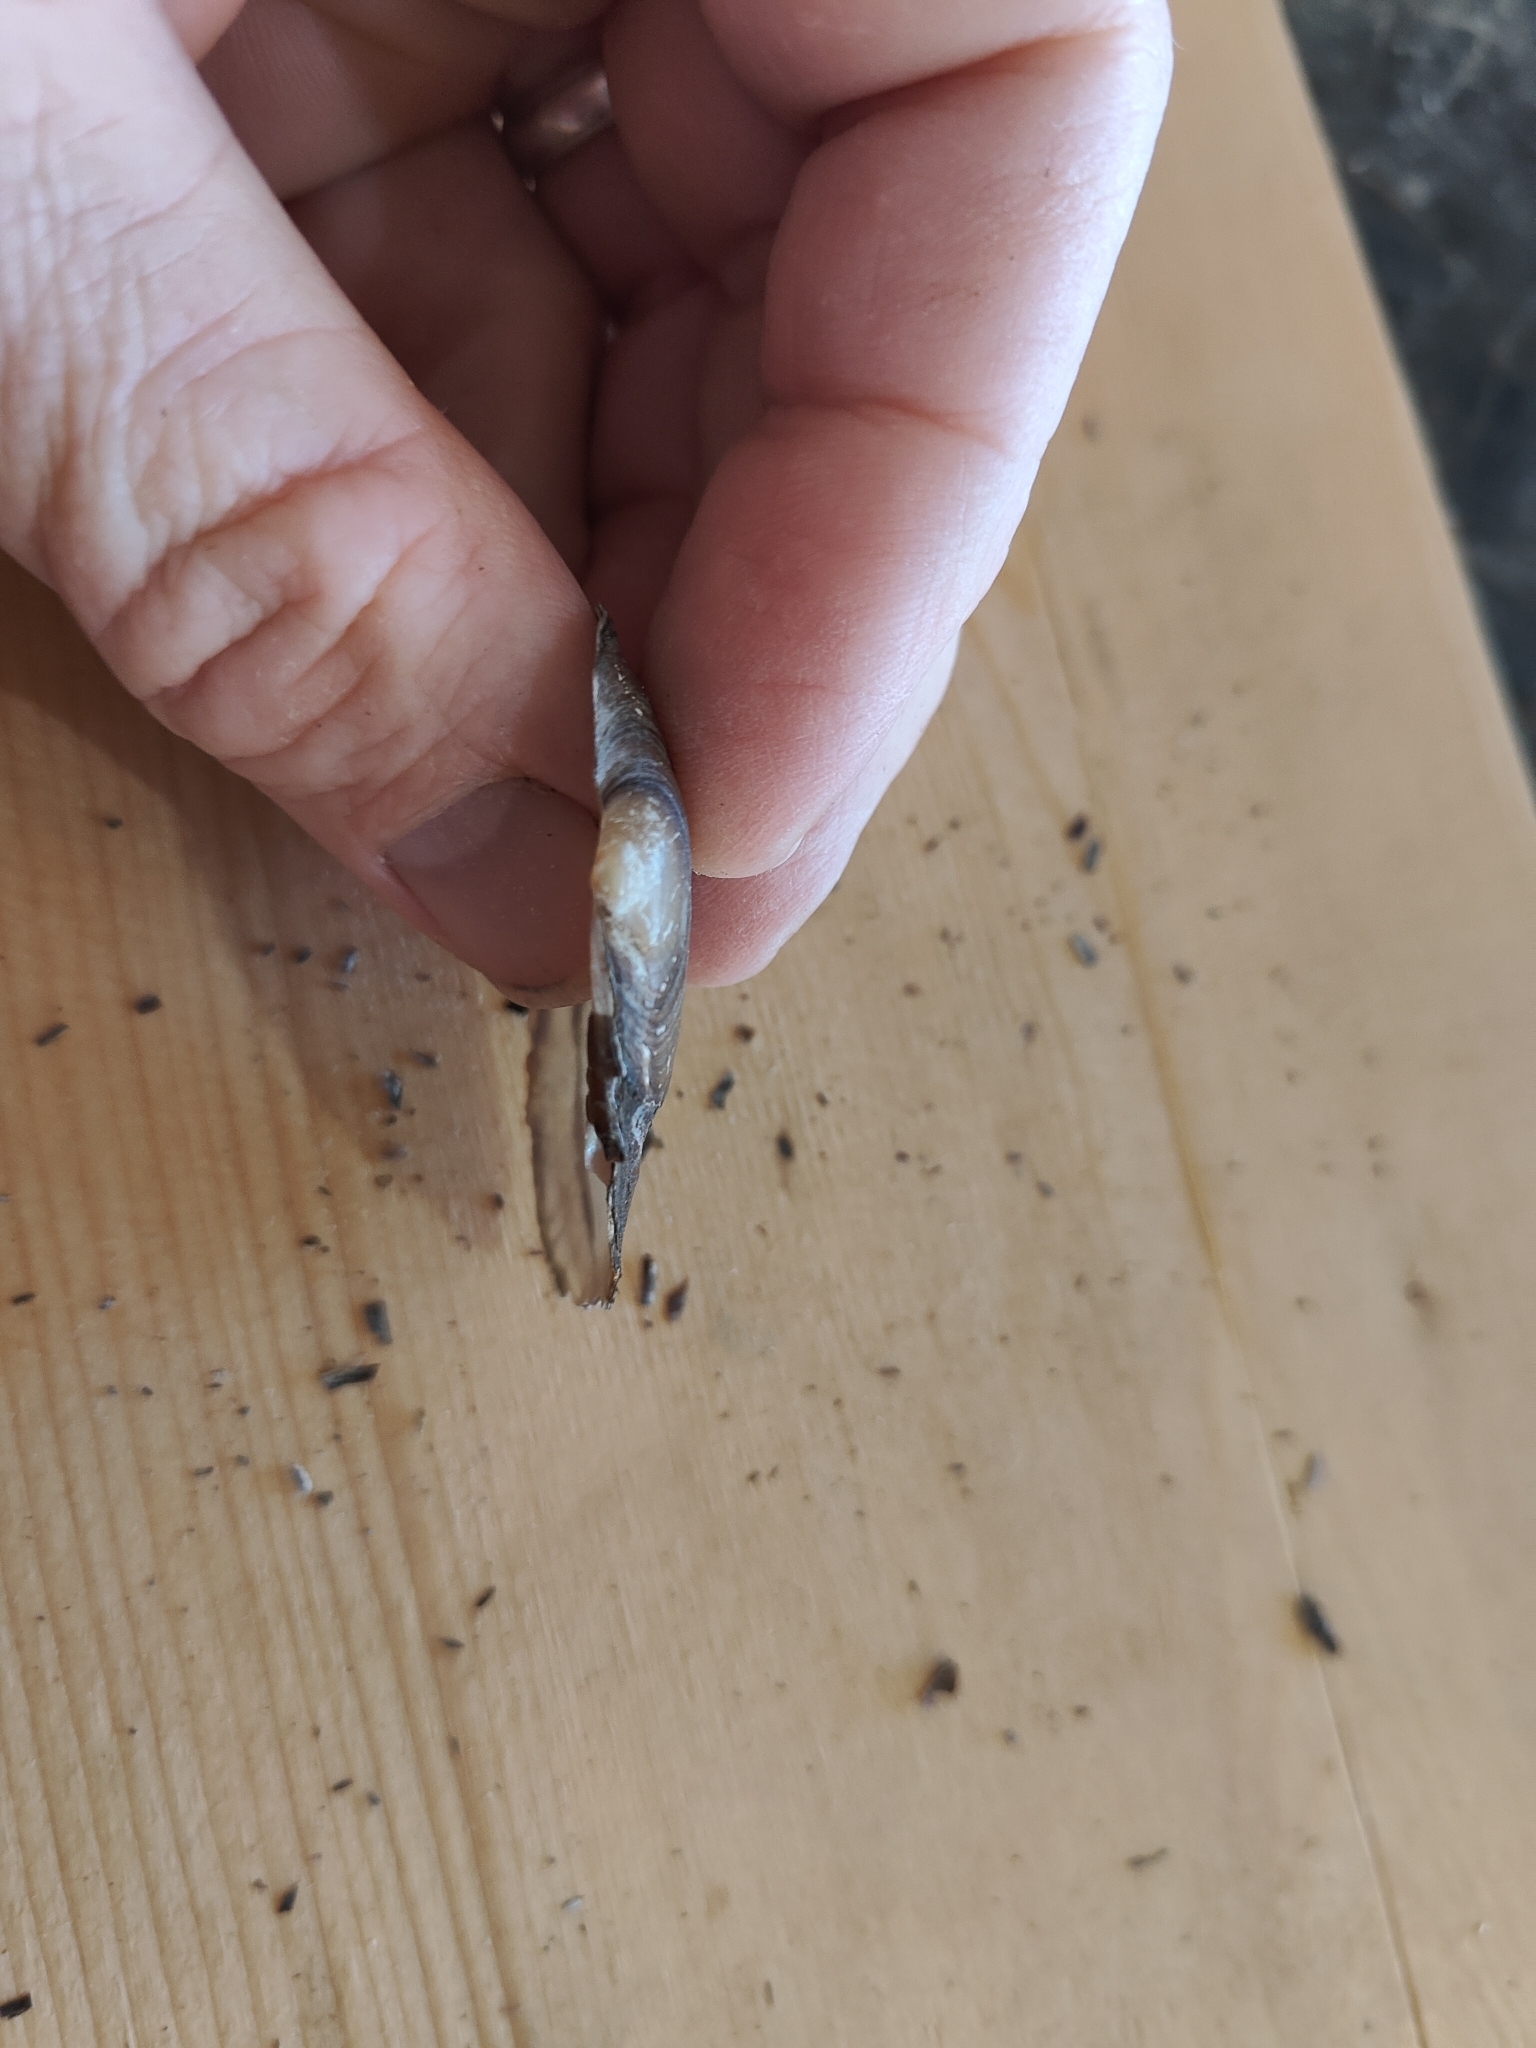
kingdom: Animalia
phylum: Mollusca
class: Bivalvia
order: Unionida
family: Unionidae
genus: Potamilus
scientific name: Potamilus fragilis
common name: Fragile papershell
